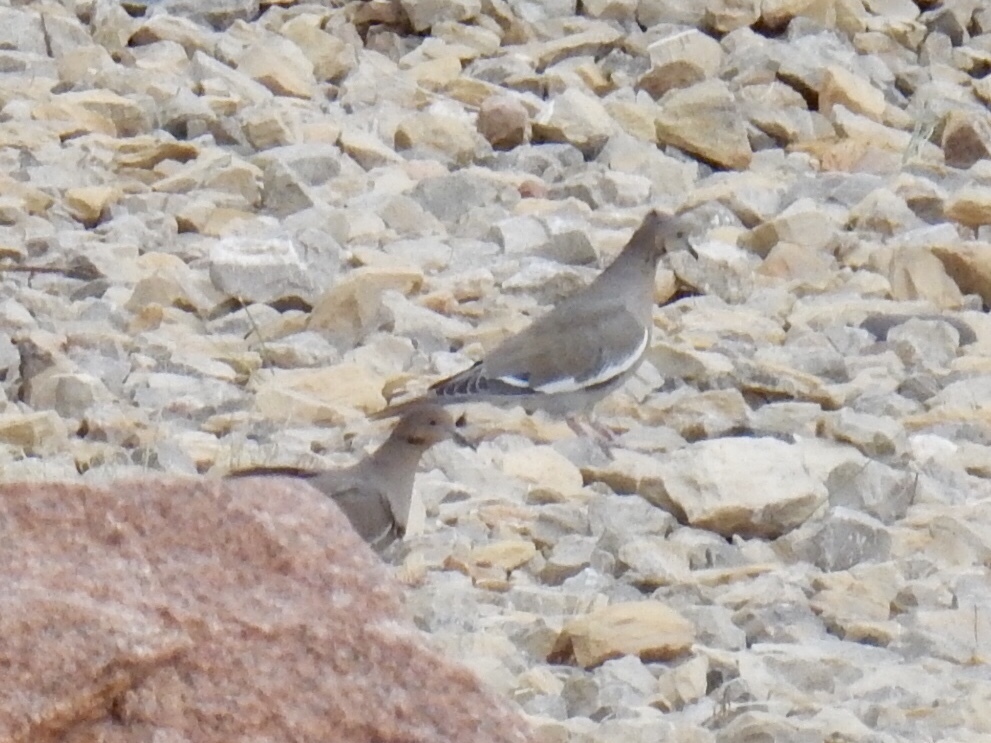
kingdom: Animalia
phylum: Chordata
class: Aves
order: Columbiformes
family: Columbidae
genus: Zenaida
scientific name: Zenaida asiatica
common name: White-winged dove
